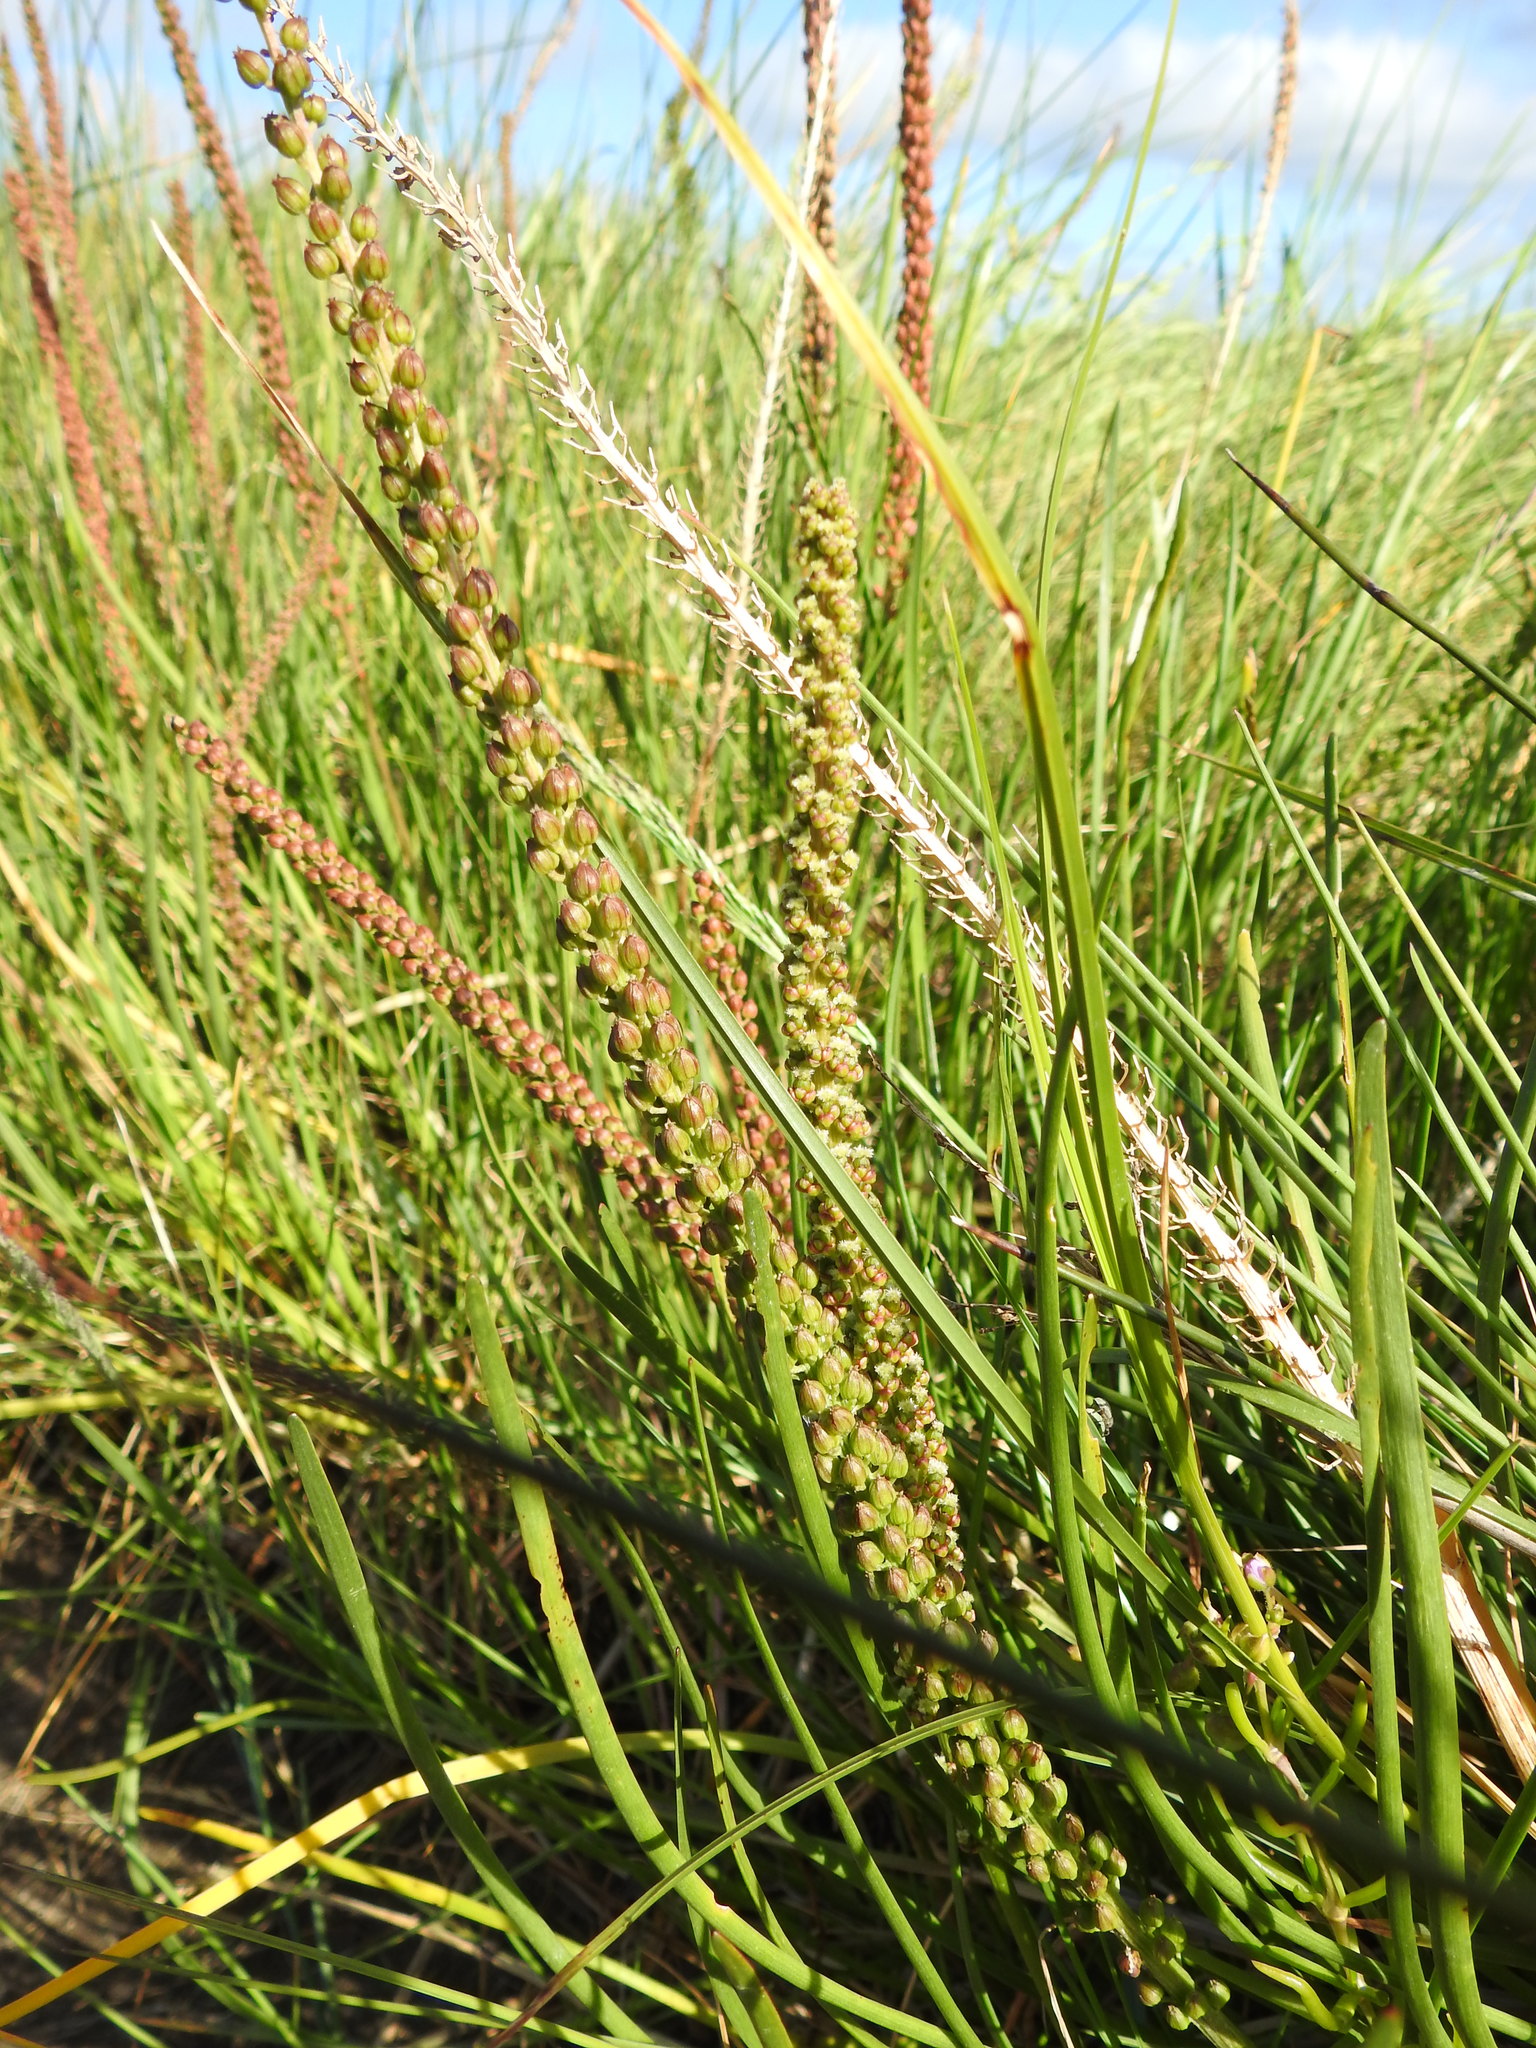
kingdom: Plantae
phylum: Tracheophyta
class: Liliopsida
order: Alismatales
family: Juncaginaceae
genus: Triglochin
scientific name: Triglochin maritima
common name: Sea arrowgrass
